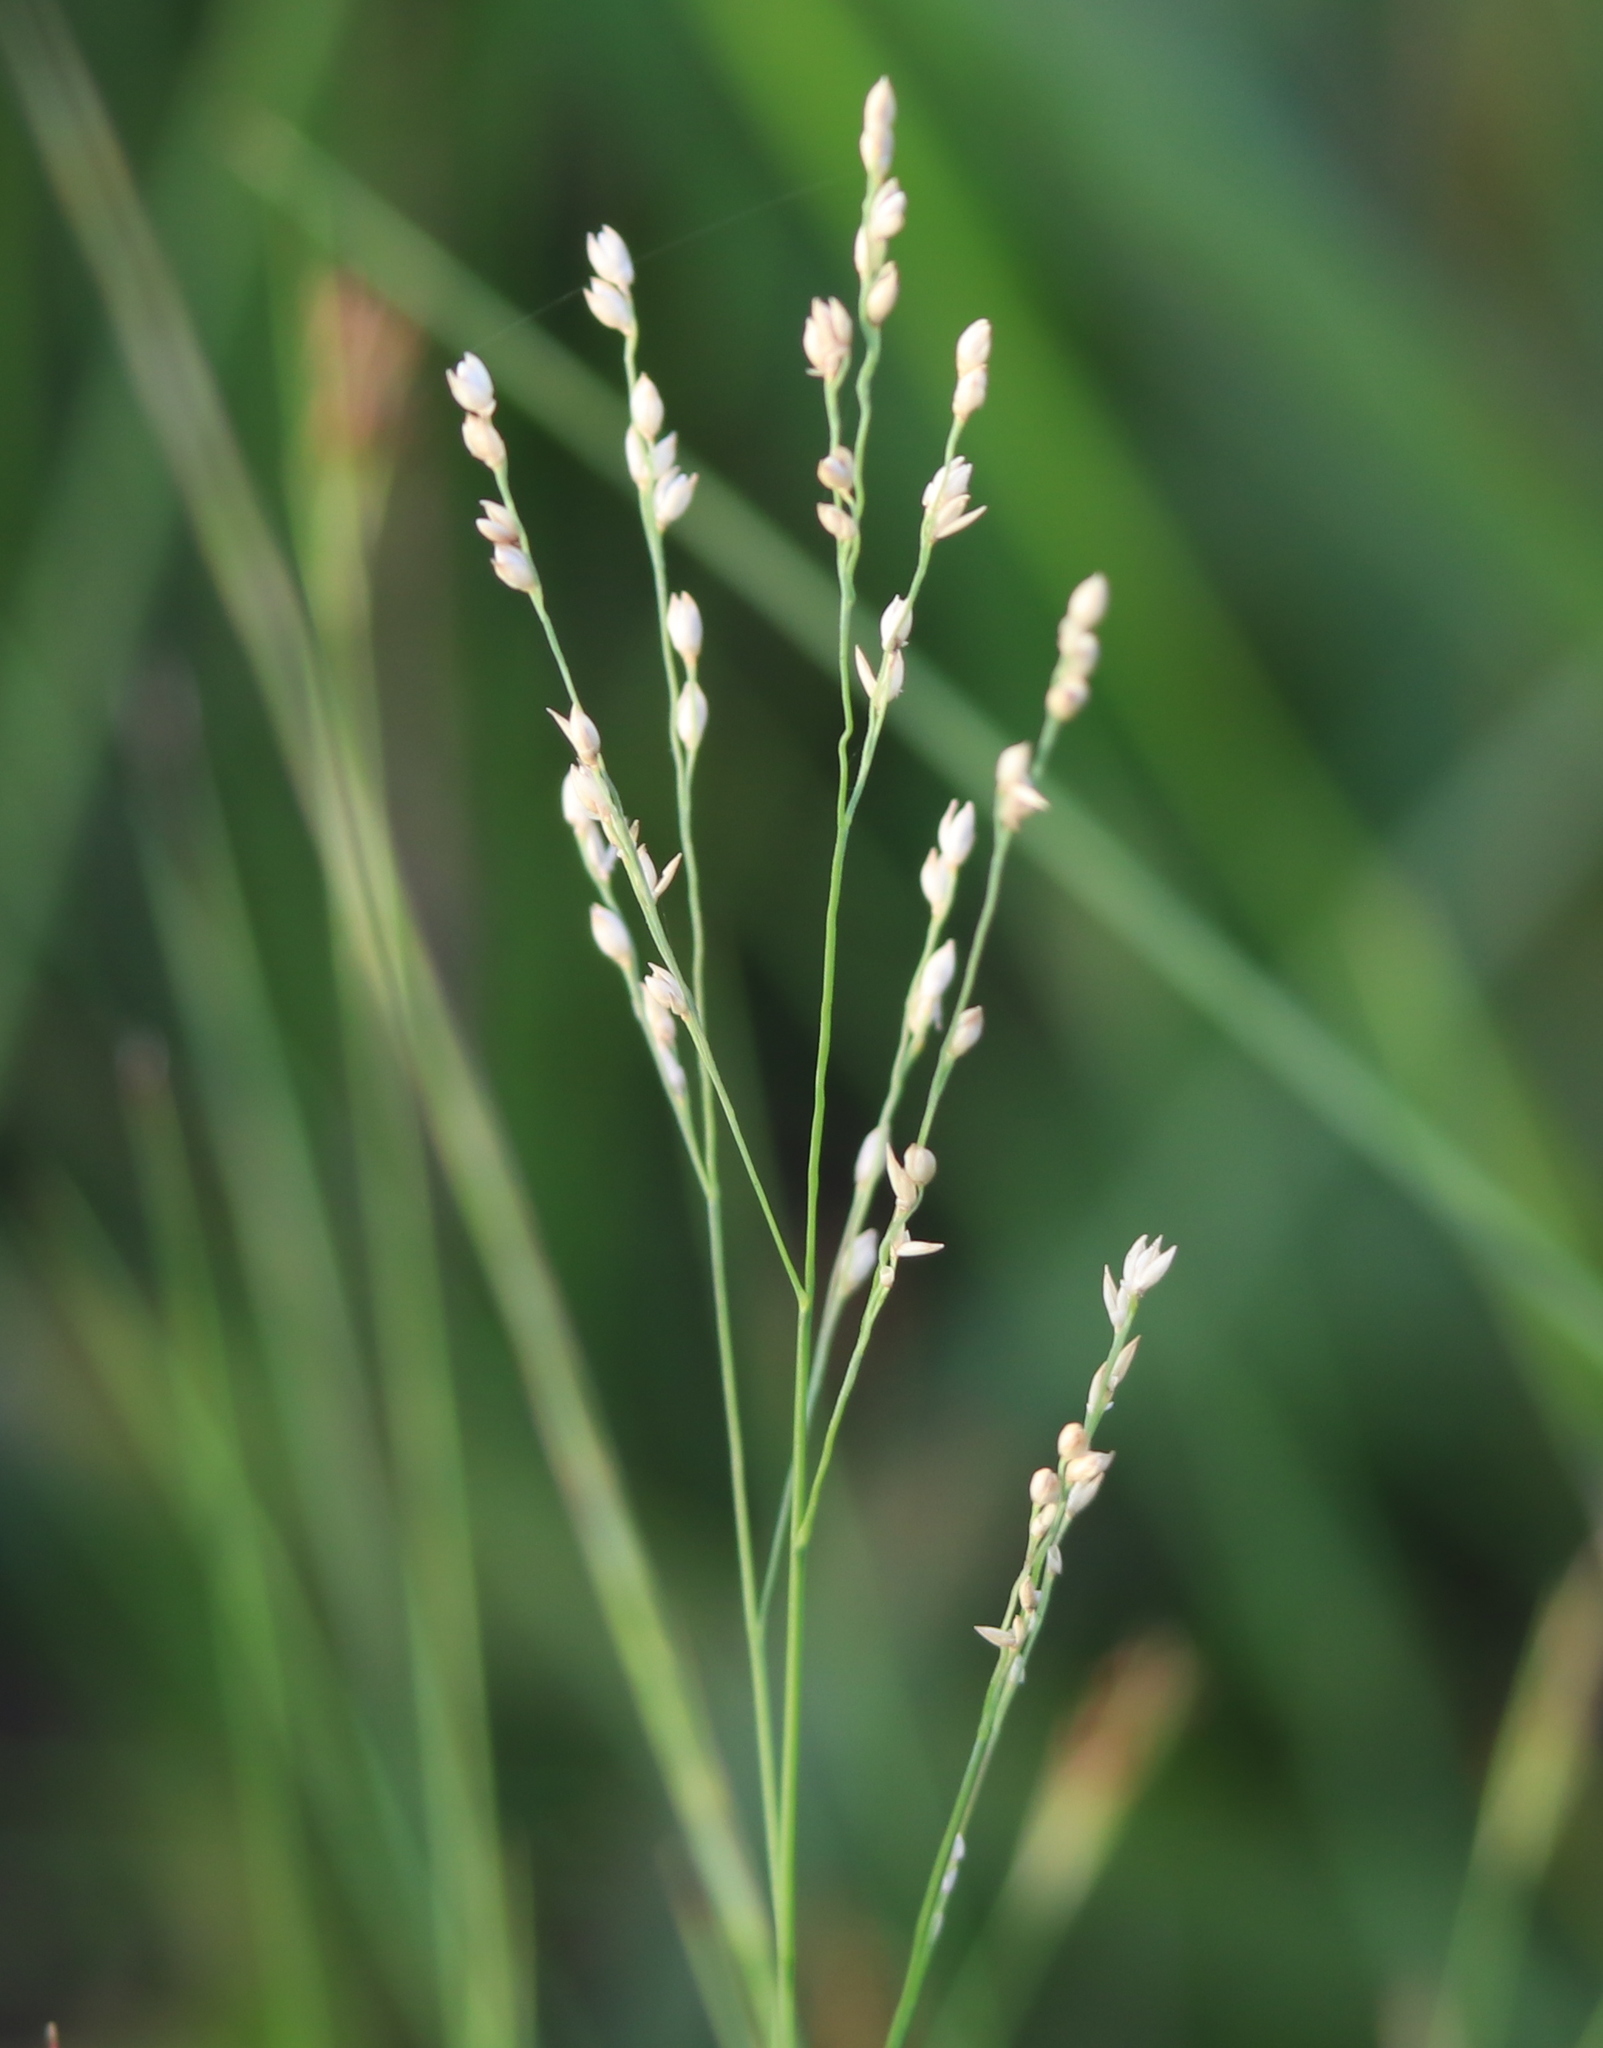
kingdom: Plantae
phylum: Tracheophyta
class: Liliopsida
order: Poales
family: Poaceae
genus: Panicum
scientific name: Panicum repens
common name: Torpedo grass
